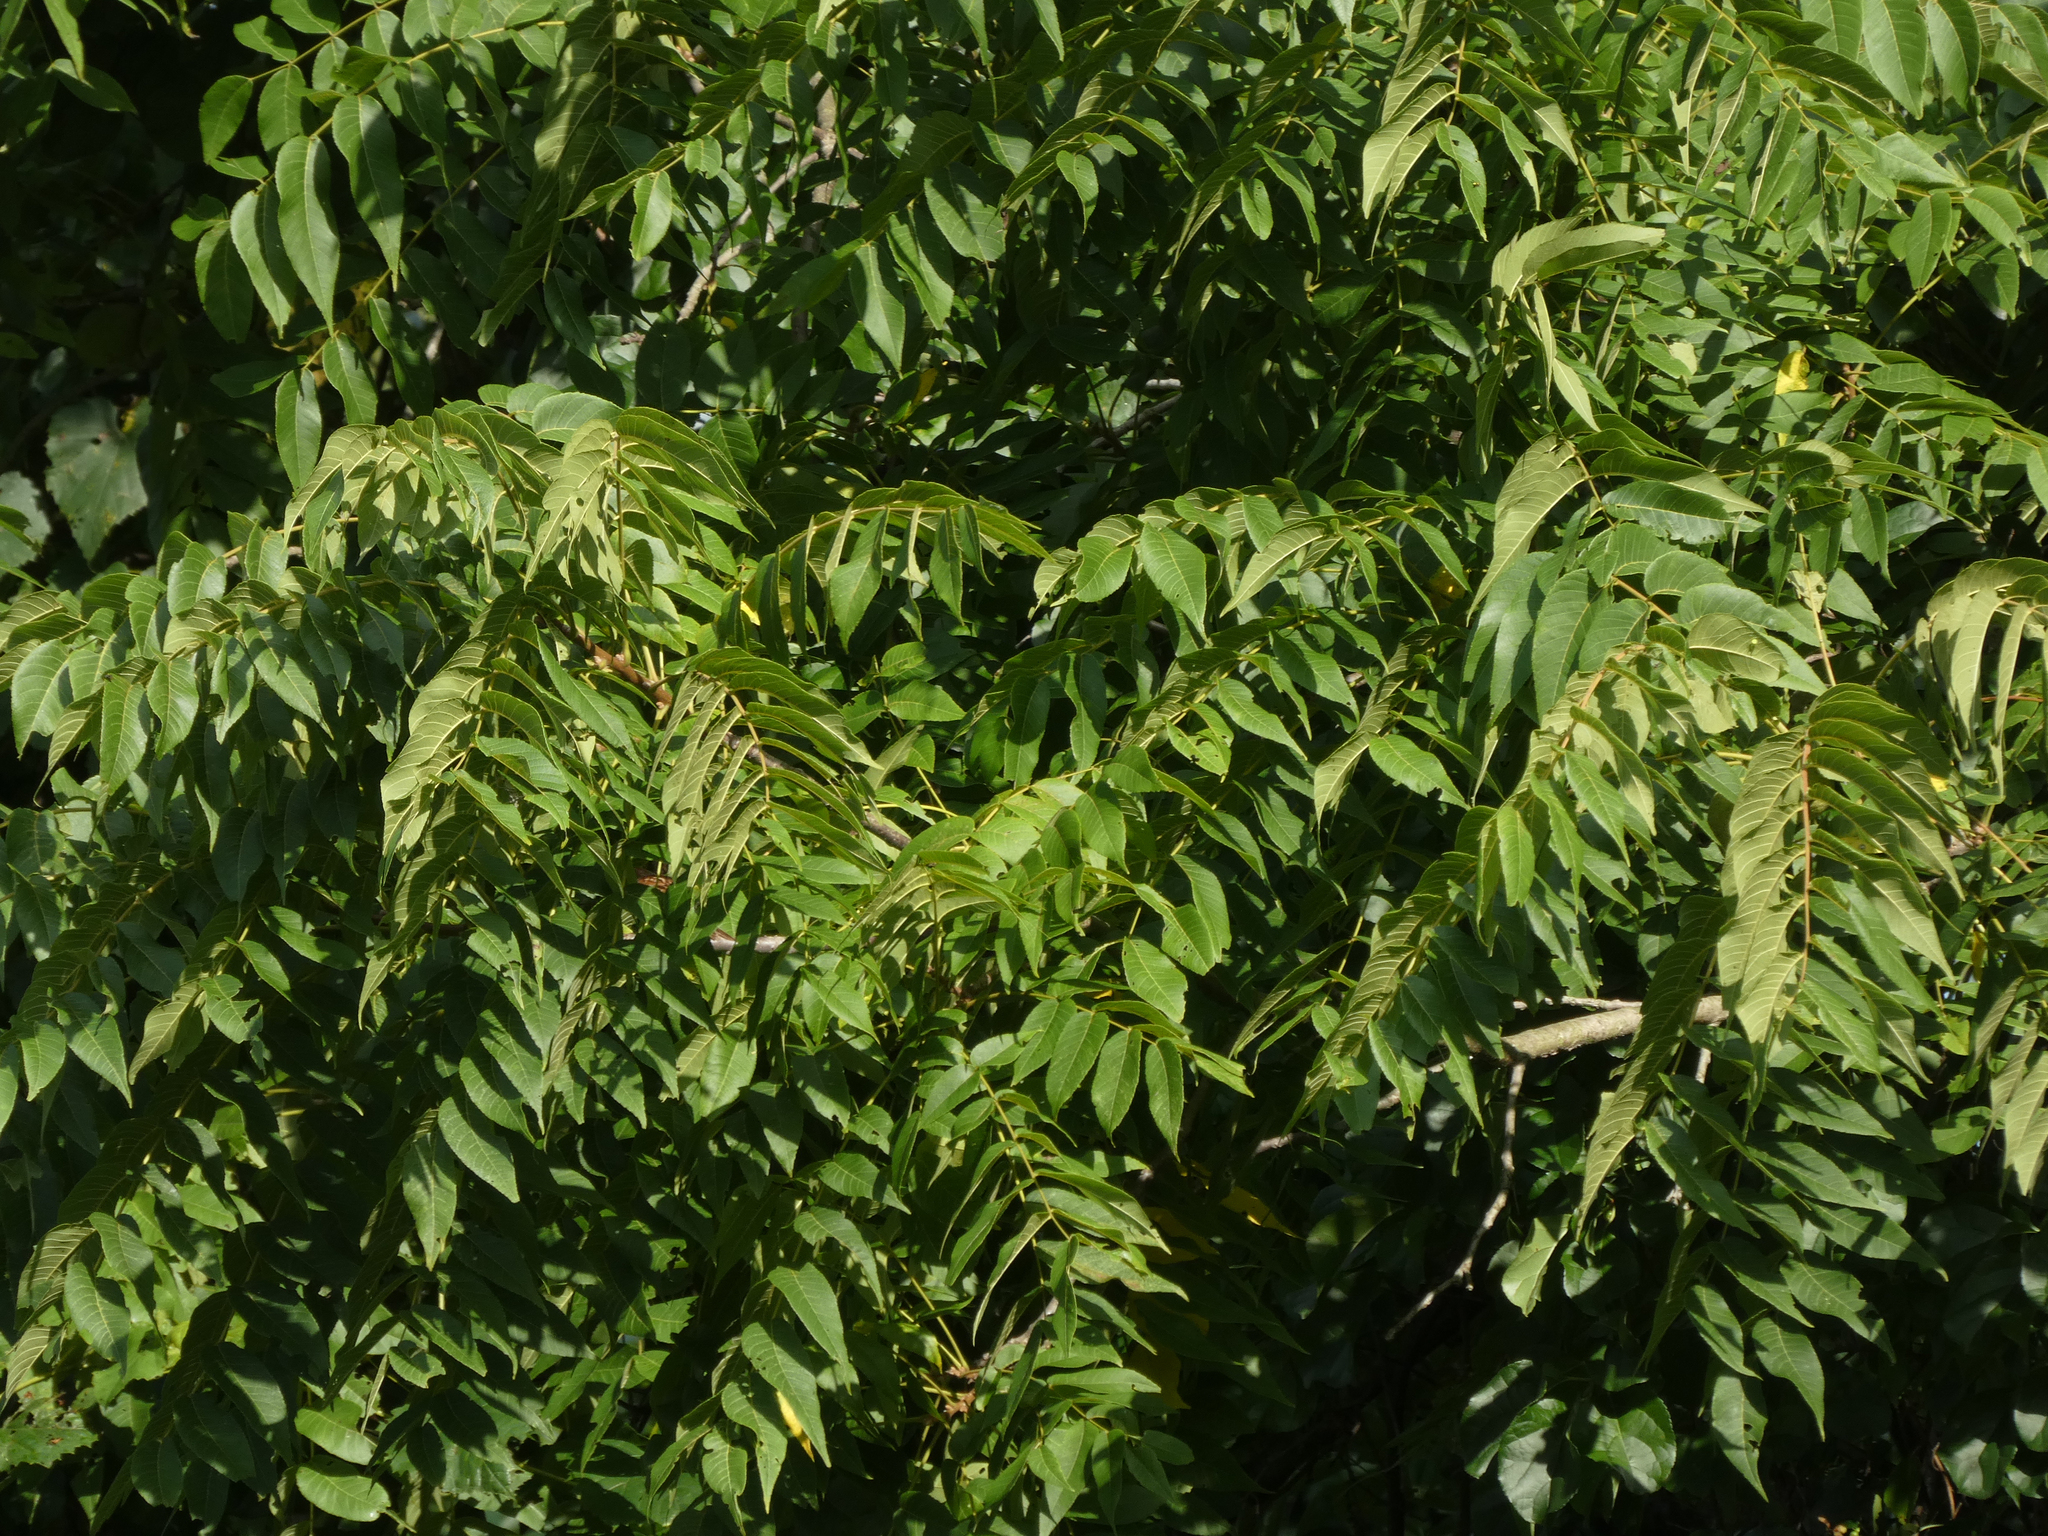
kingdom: Plantae
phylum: Tracheophyta
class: Magnoliopsida
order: Fagales
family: Juglandaceae
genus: Juglans
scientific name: Juglans nigra
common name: Black walnut
